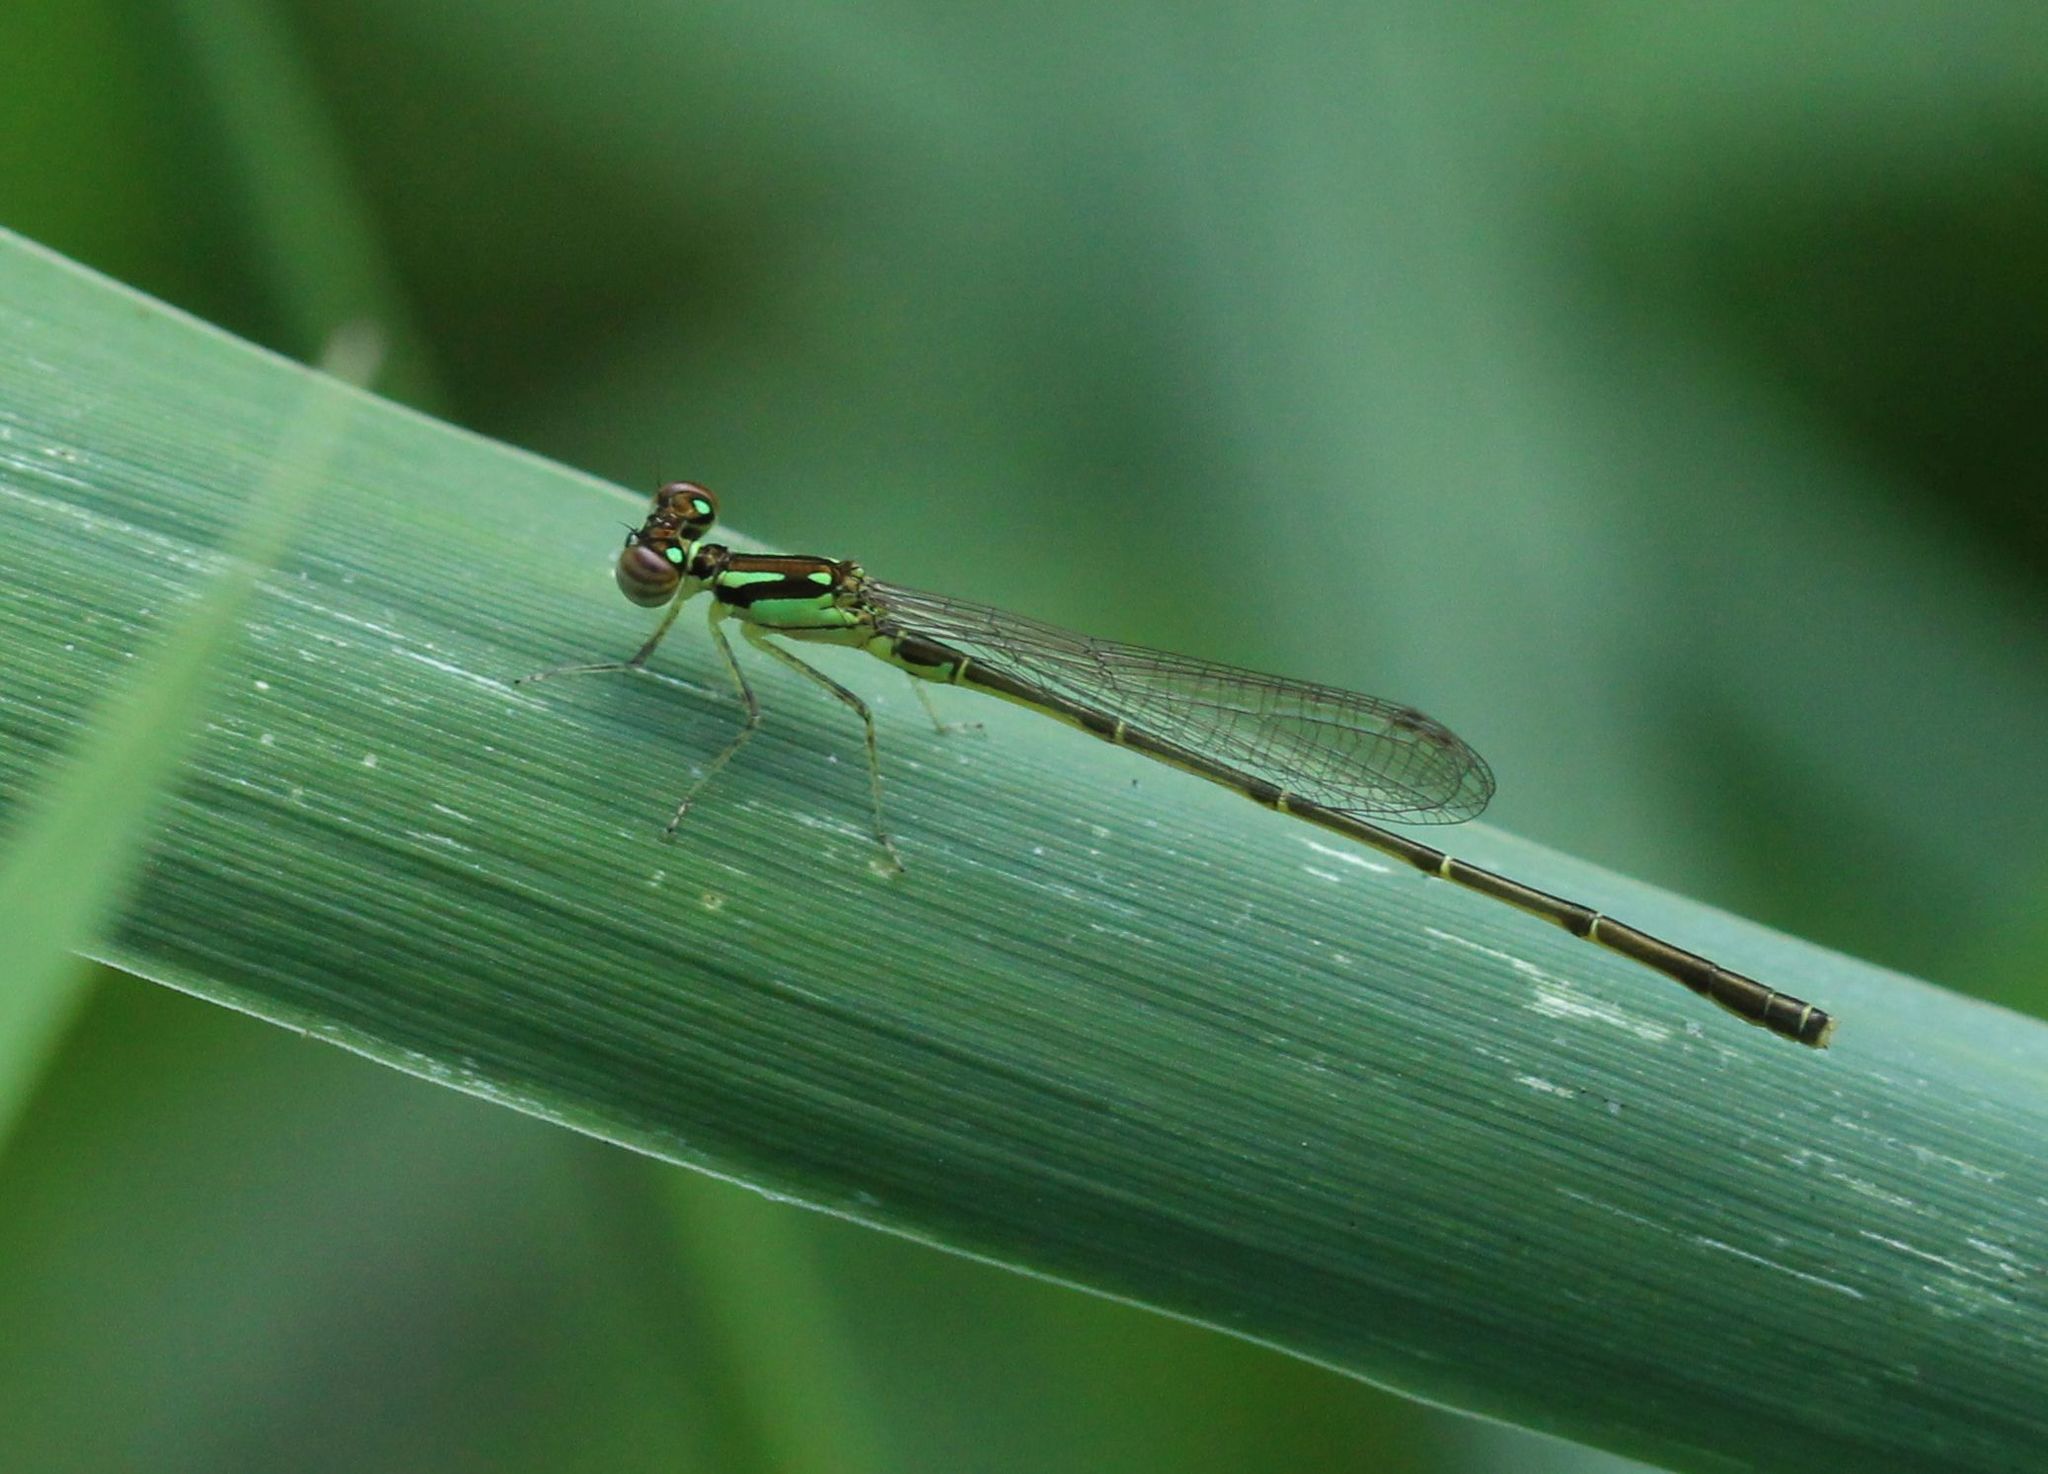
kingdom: Animalia
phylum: Arthropoda
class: Insecta
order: Odonata
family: Coenagrionidae
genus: Ischnura
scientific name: Ischnura posita
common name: Fragile forktail
